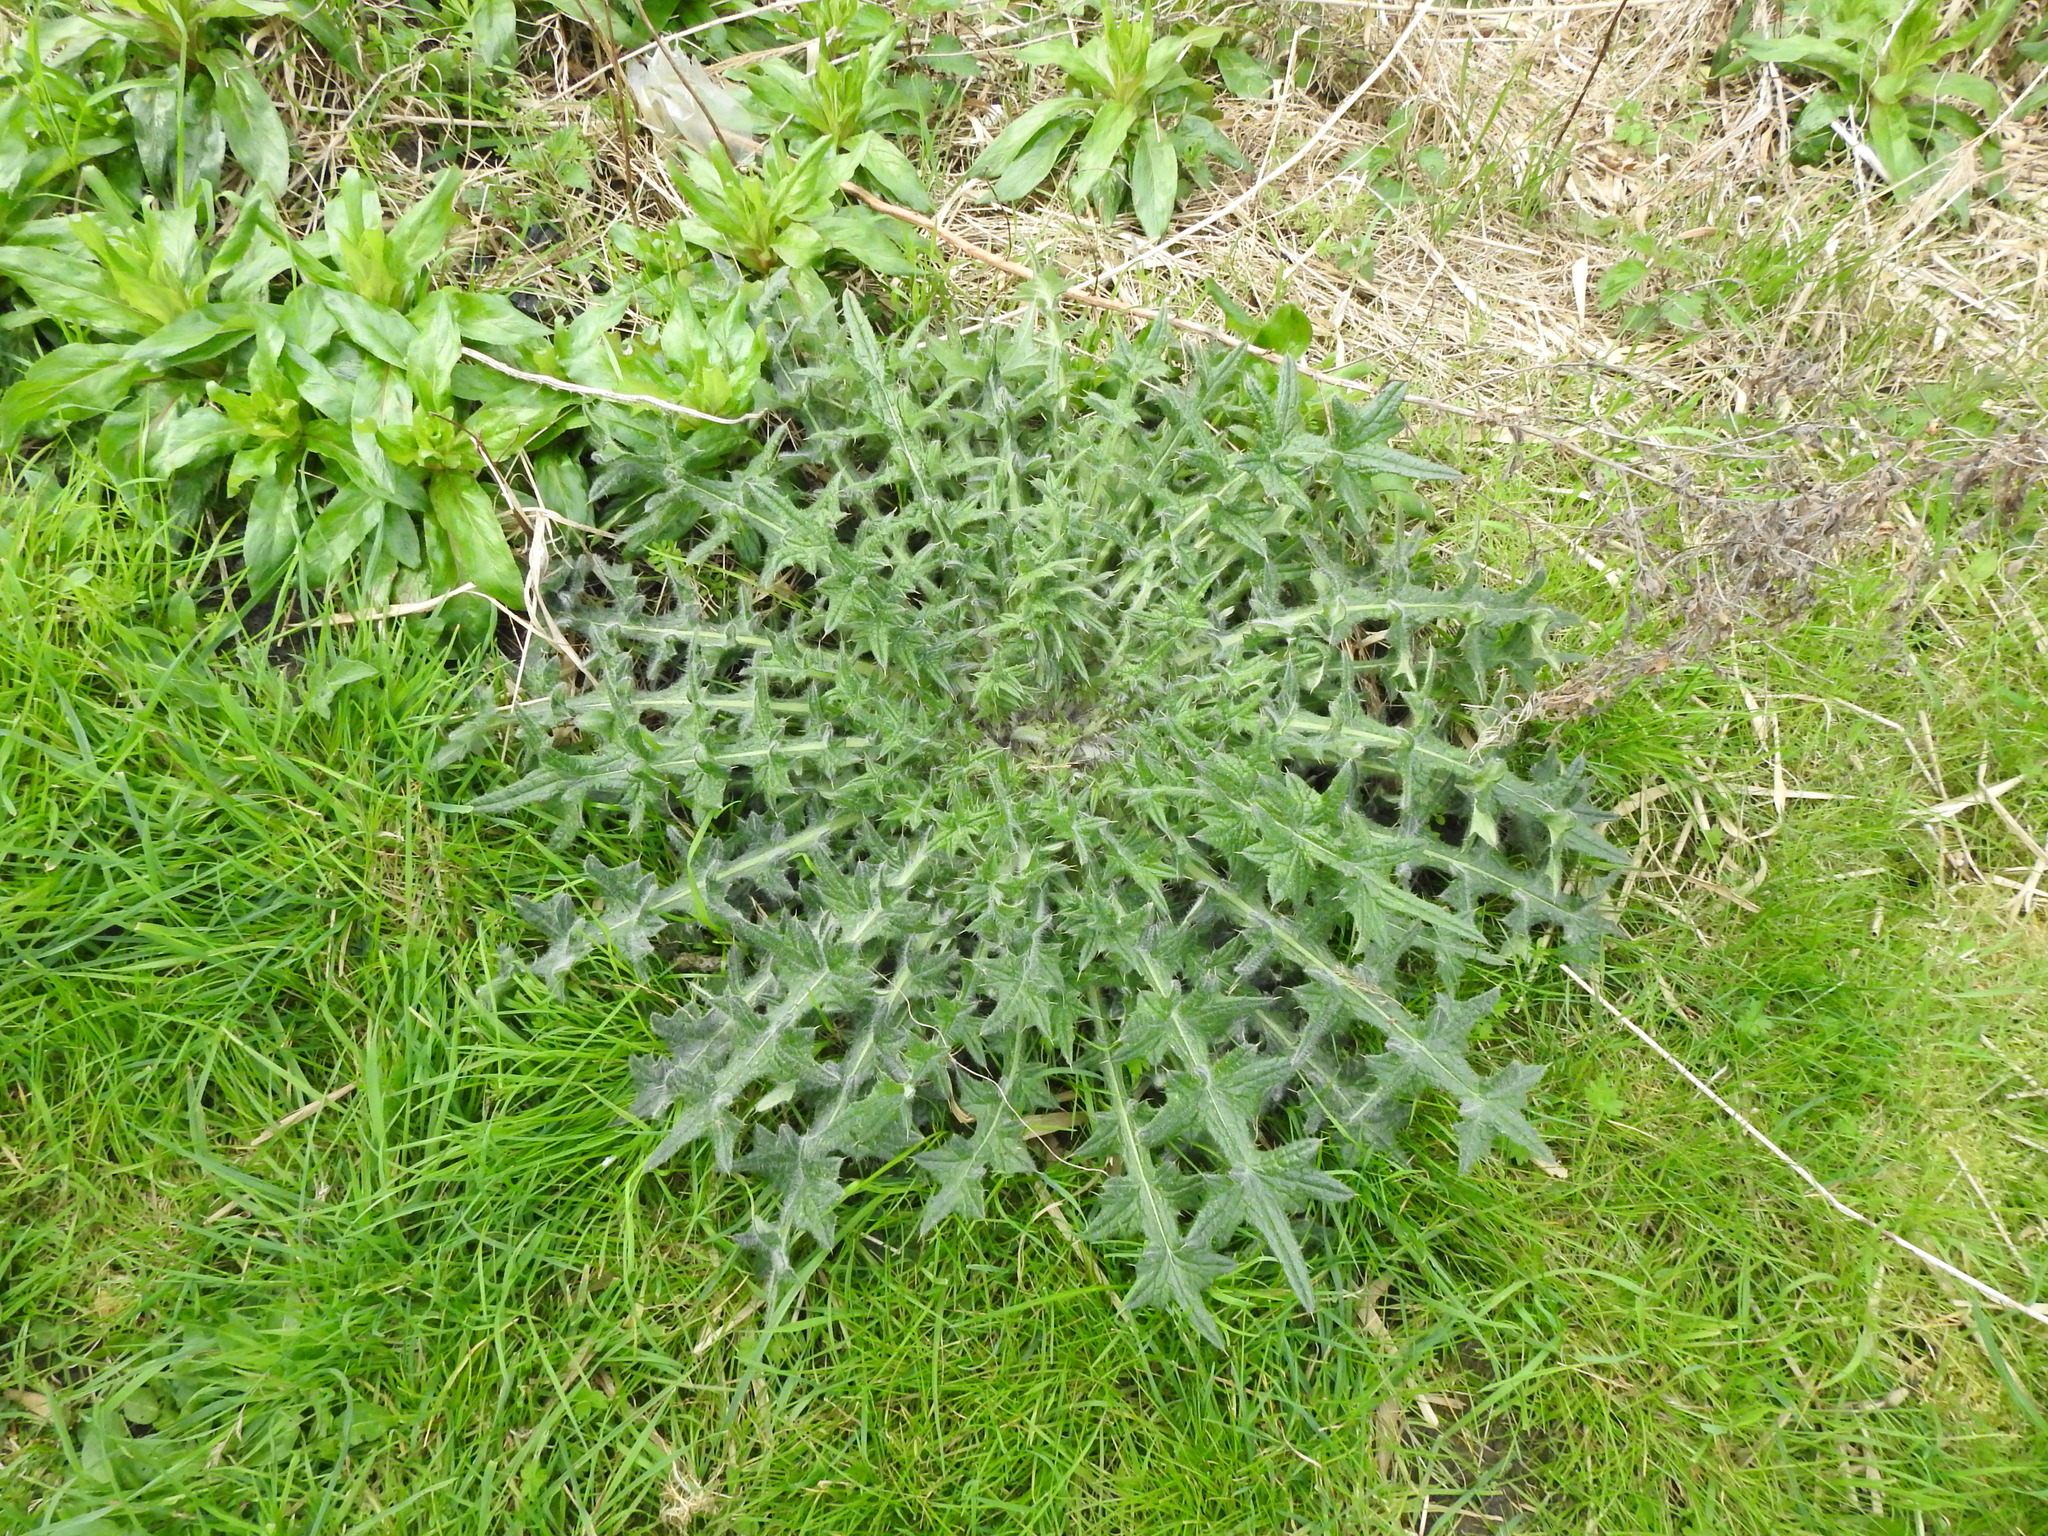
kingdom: Plantae
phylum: Tracheophyta
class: Magnoliopsida
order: Asterales
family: Asteraceae
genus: Cirsium
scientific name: Cirsium vulgare
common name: Bull thistle
